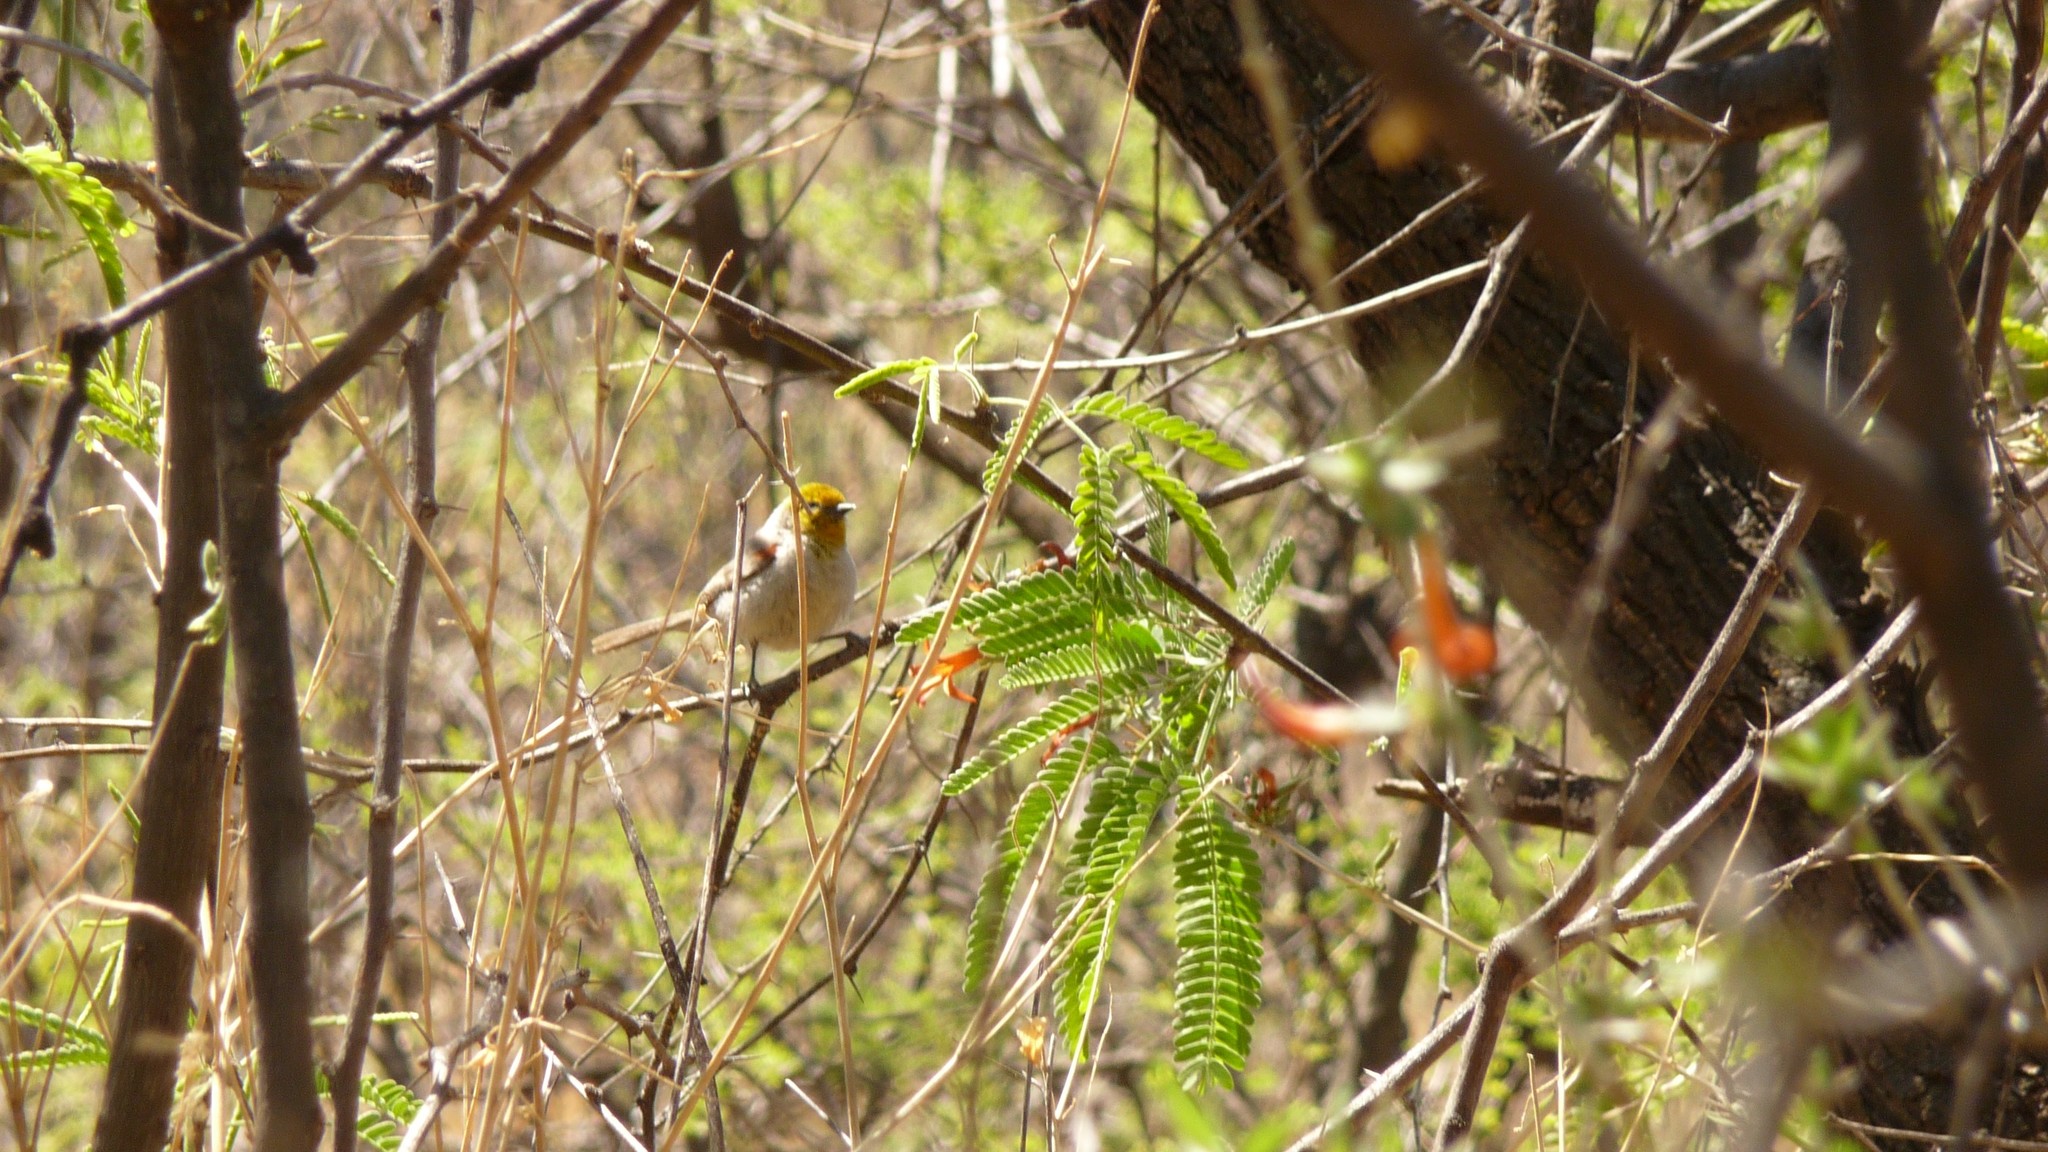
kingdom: Animalia
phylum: Chordata
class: Aves
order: Passeriformes
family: Remizidae
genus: Auriparus
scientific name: Auriparus flaviceps
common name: Verdin
